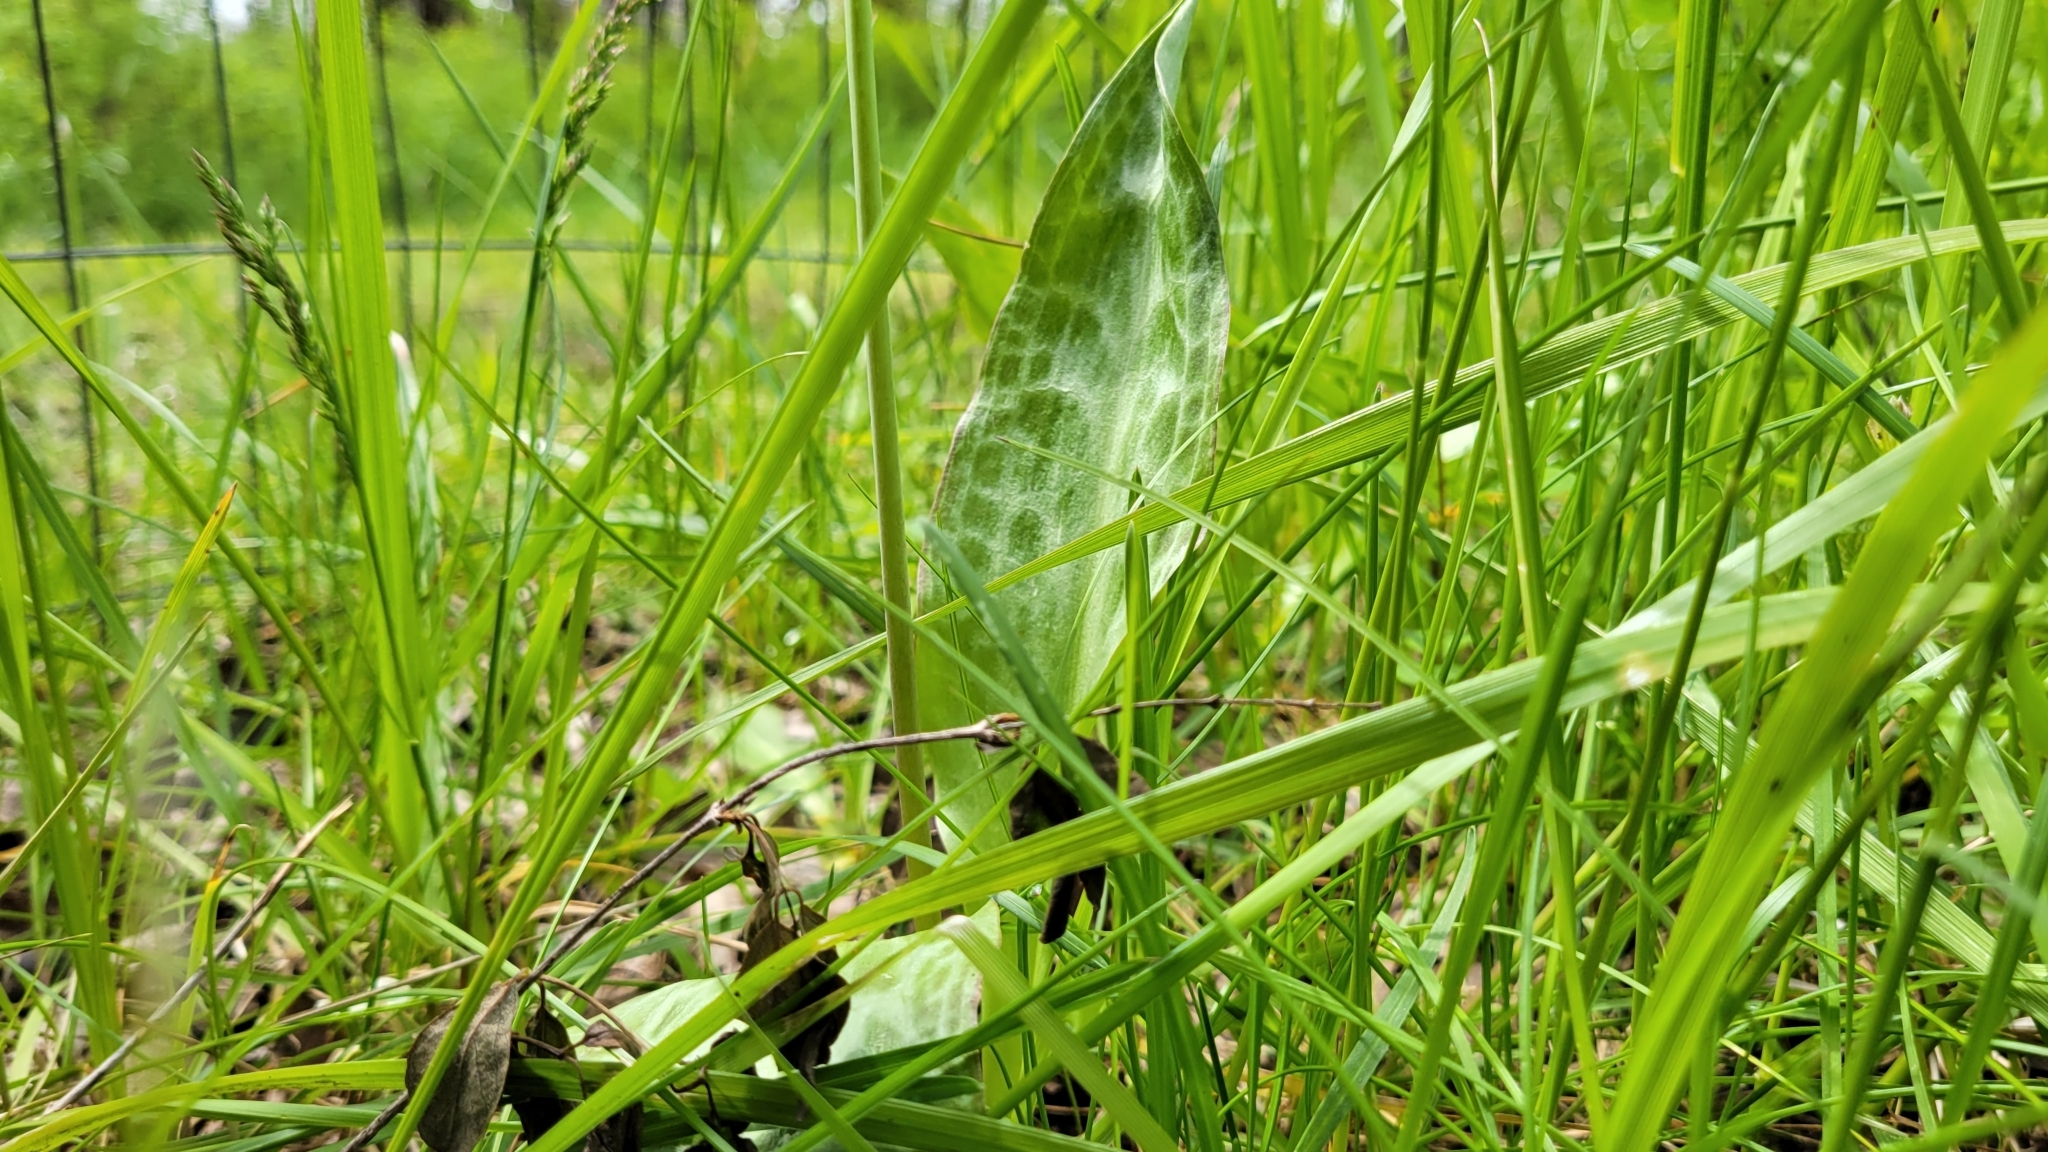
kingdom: Plantae
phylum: Tracheophyta
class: Liliopsida
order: Liliales
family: Liliaceae
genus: Erythronium
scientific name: Erythronium oregonum
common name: Giant adder's-tongue
